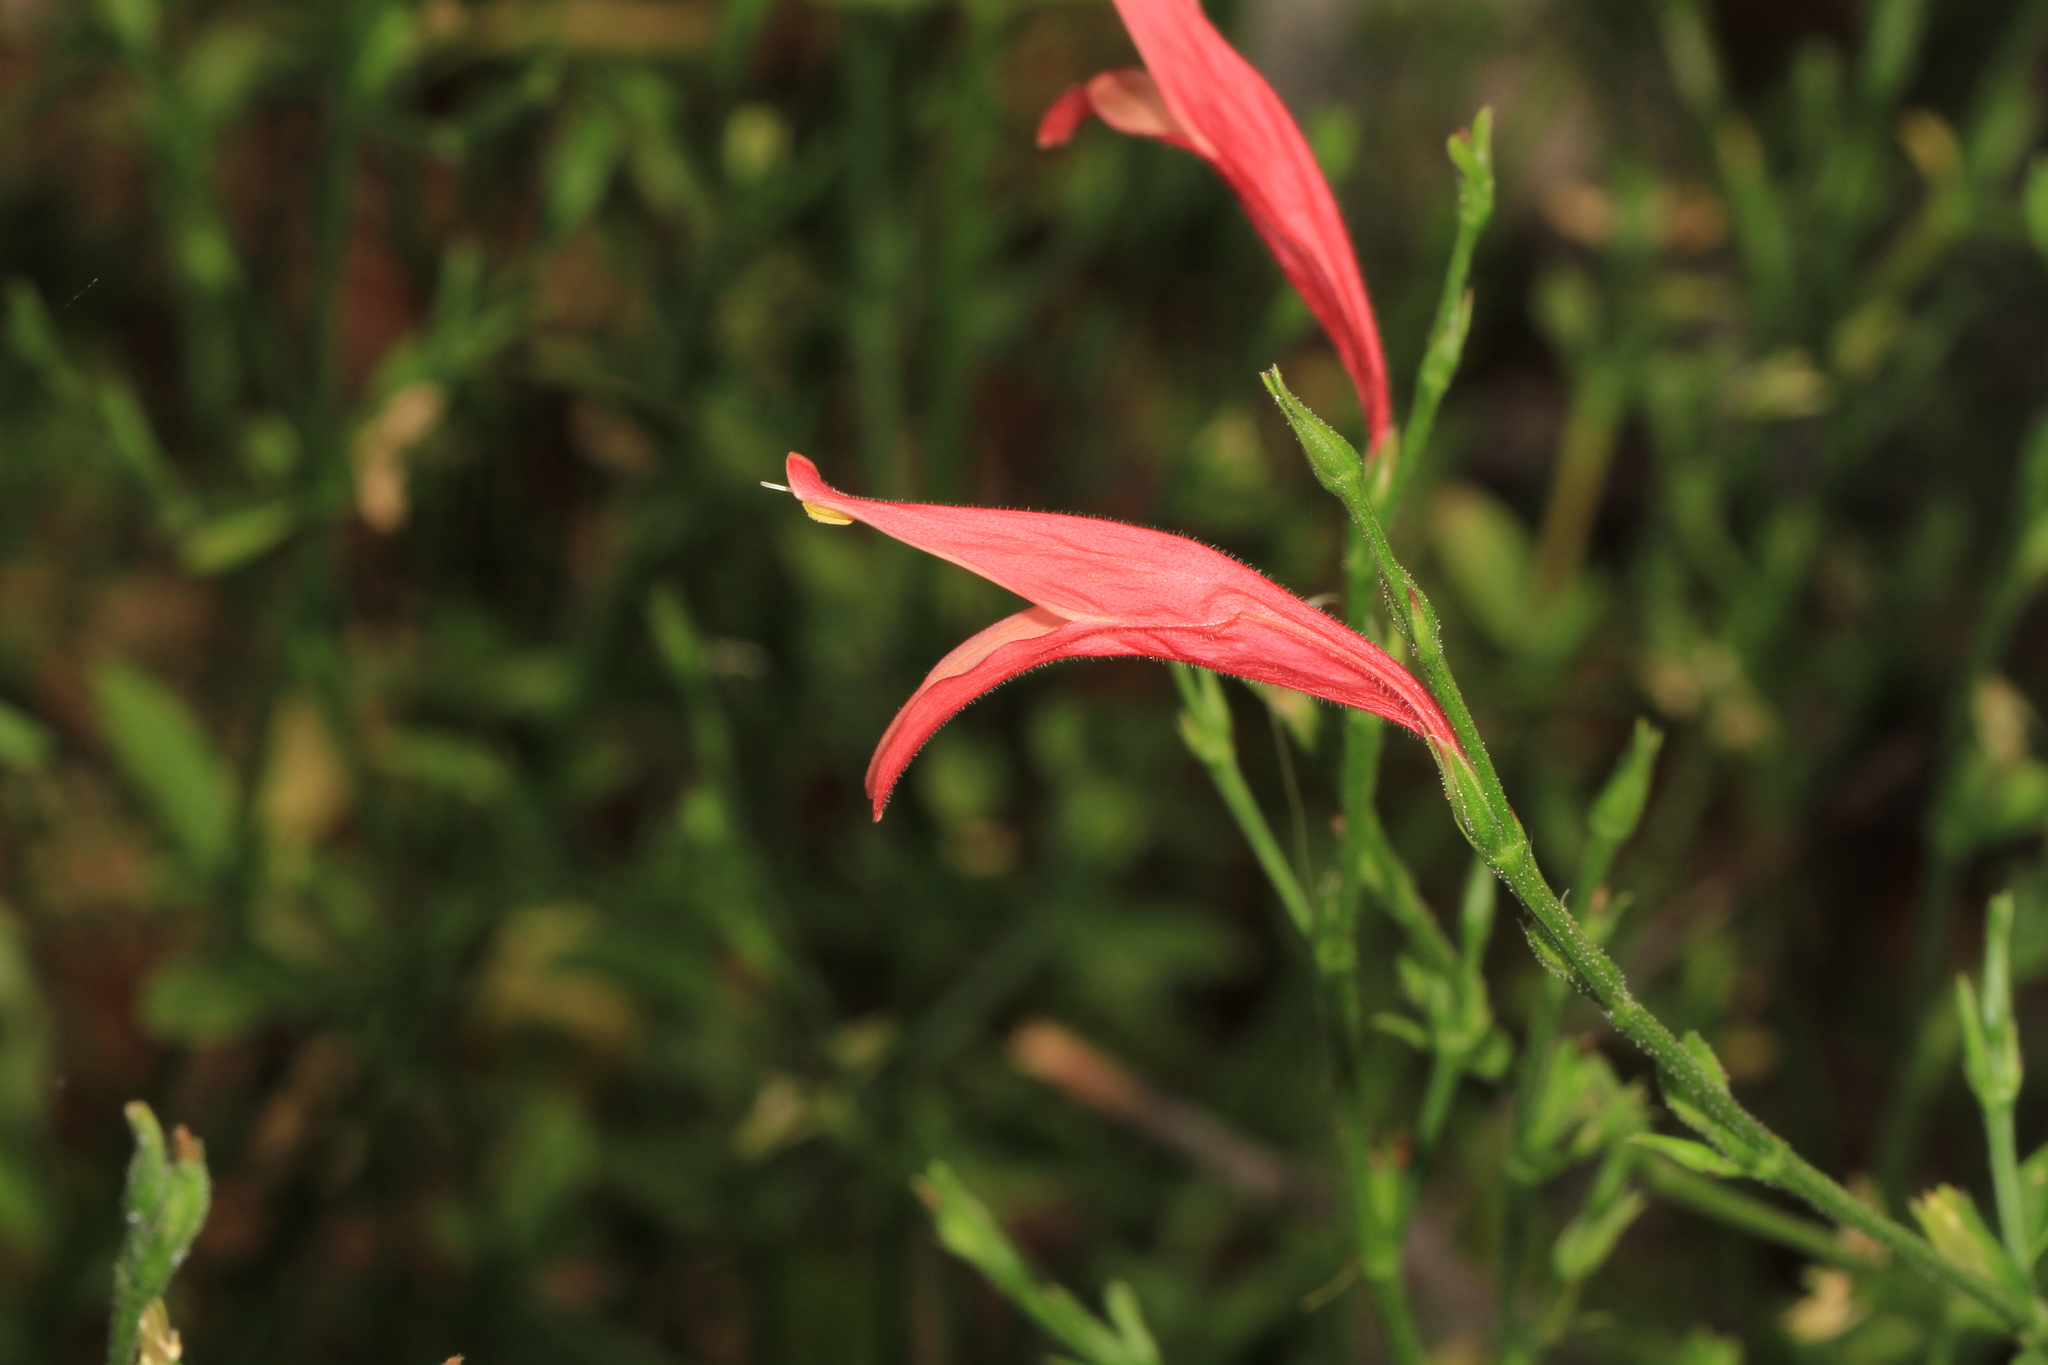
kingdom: Plantae
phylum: Tracheophyta
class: Magnoliopsida
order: Lamiales
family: Acanthaceae
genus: Dicliptera
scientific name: Dicliptera sexangularis
